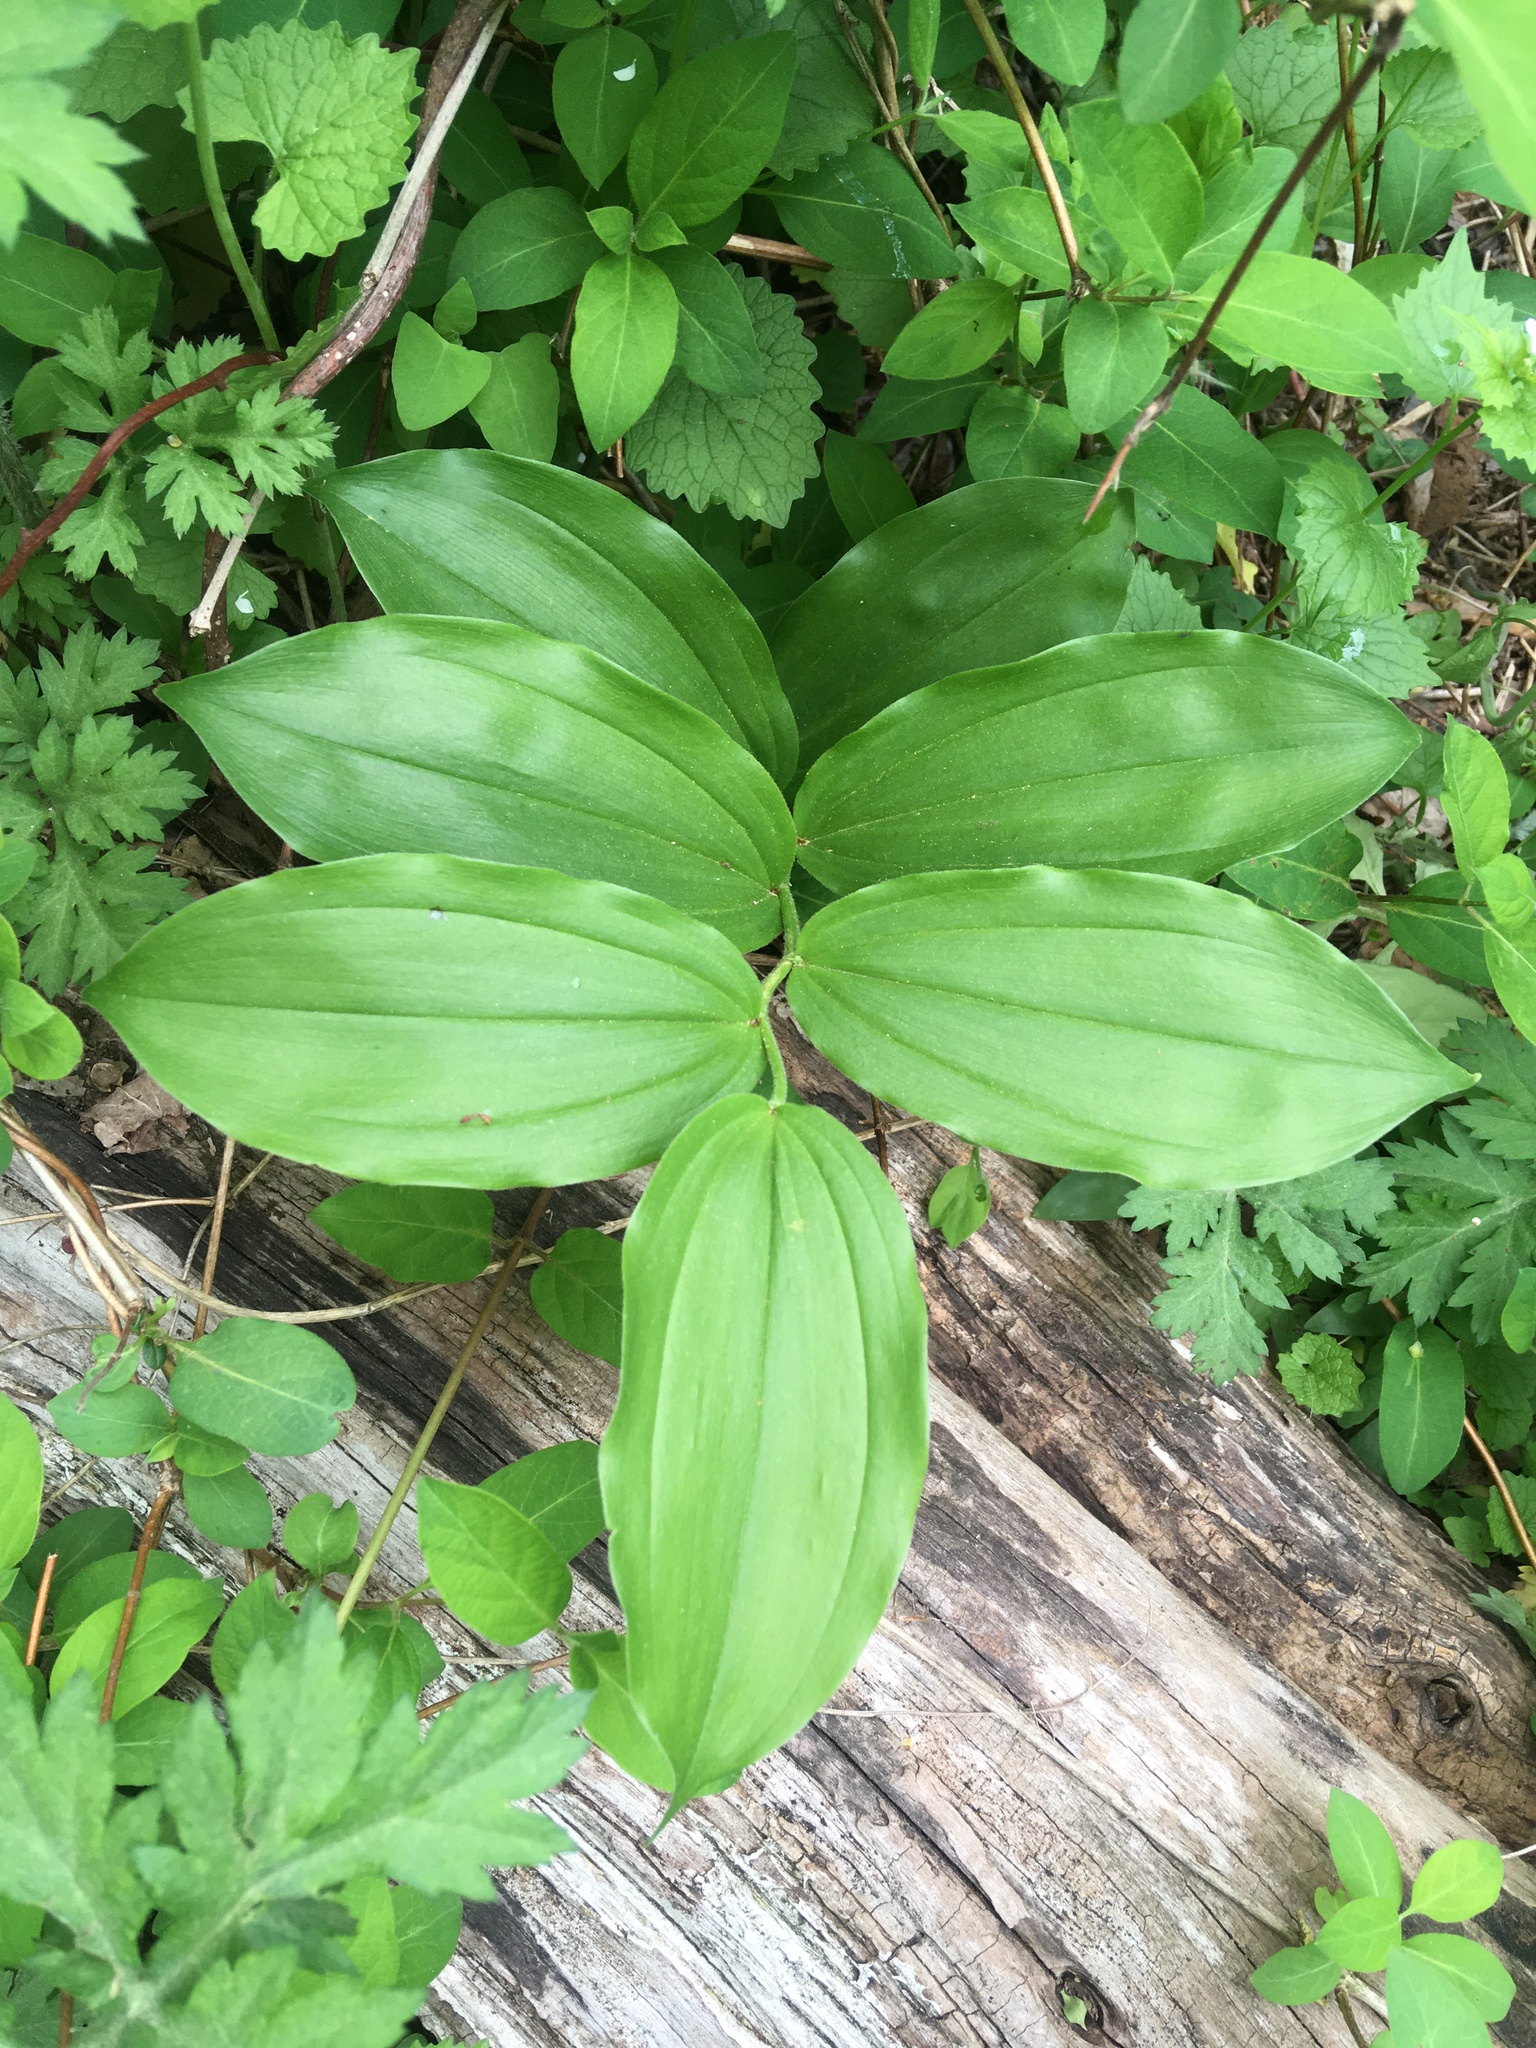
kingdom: Plantae
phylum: Tracheophyta
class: Liliopsida
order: Asparagales
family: Asparagaceae
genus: Maianthemum
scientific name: Maianthemum racemosum
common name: False spikenard
